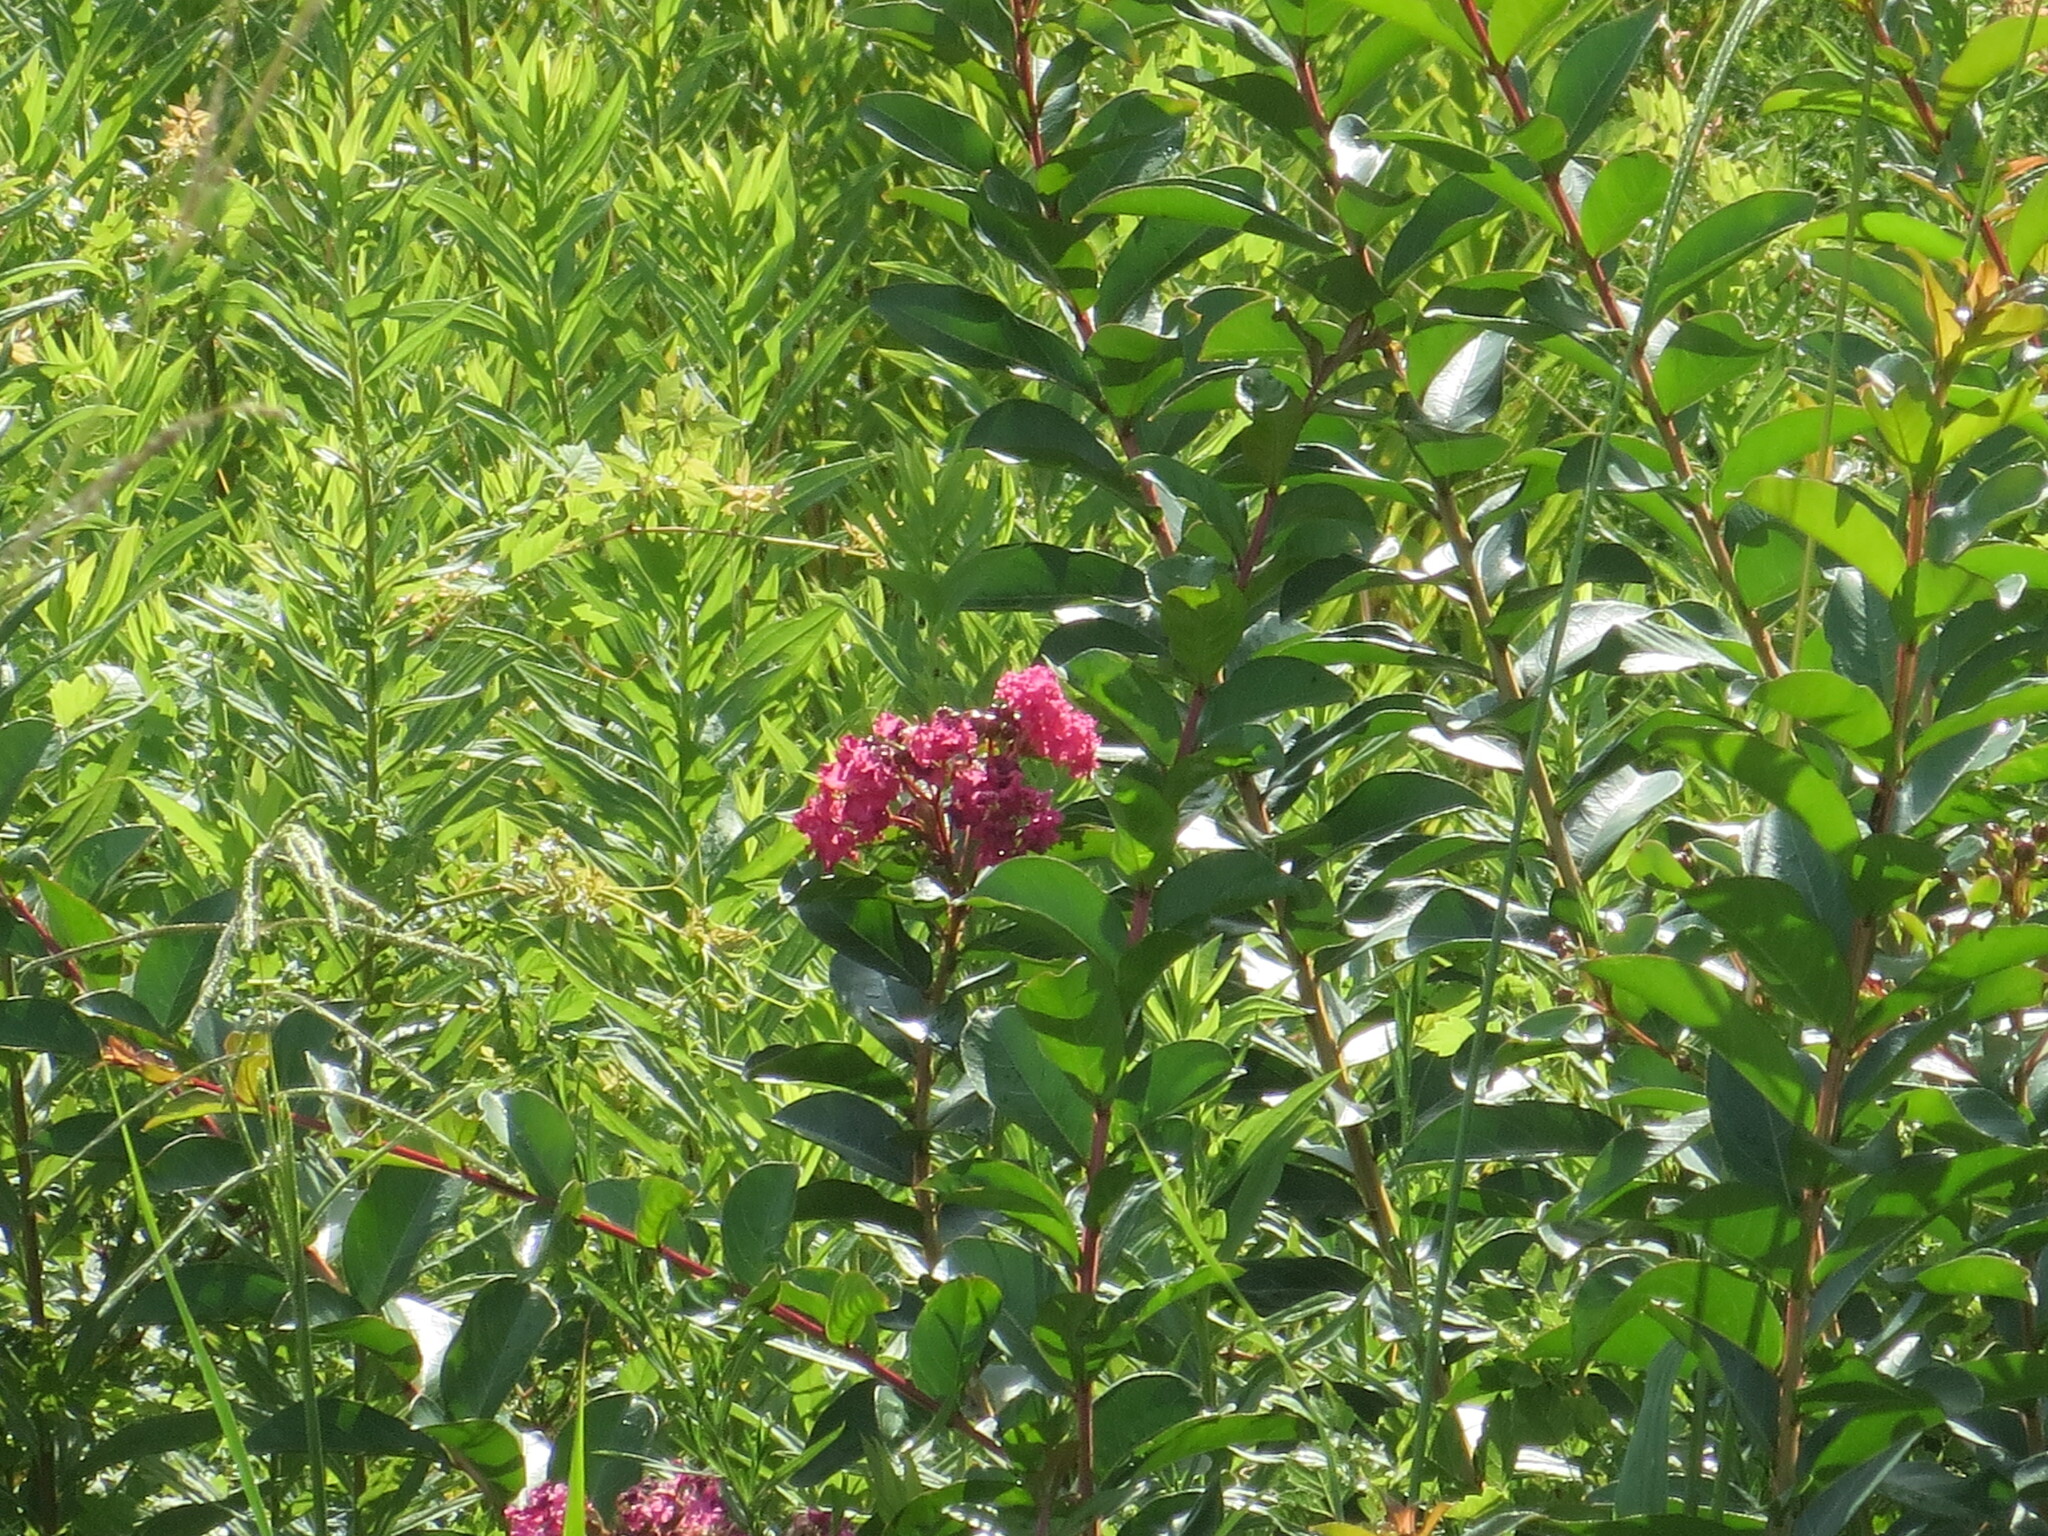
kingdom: Plantae
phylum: Tracheophyta
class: Magnoliopsida
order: Myrtales
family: Lythraceae
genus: Lagerstroemia
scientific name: Lagerstroemia indica
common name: Crape-myrtle
